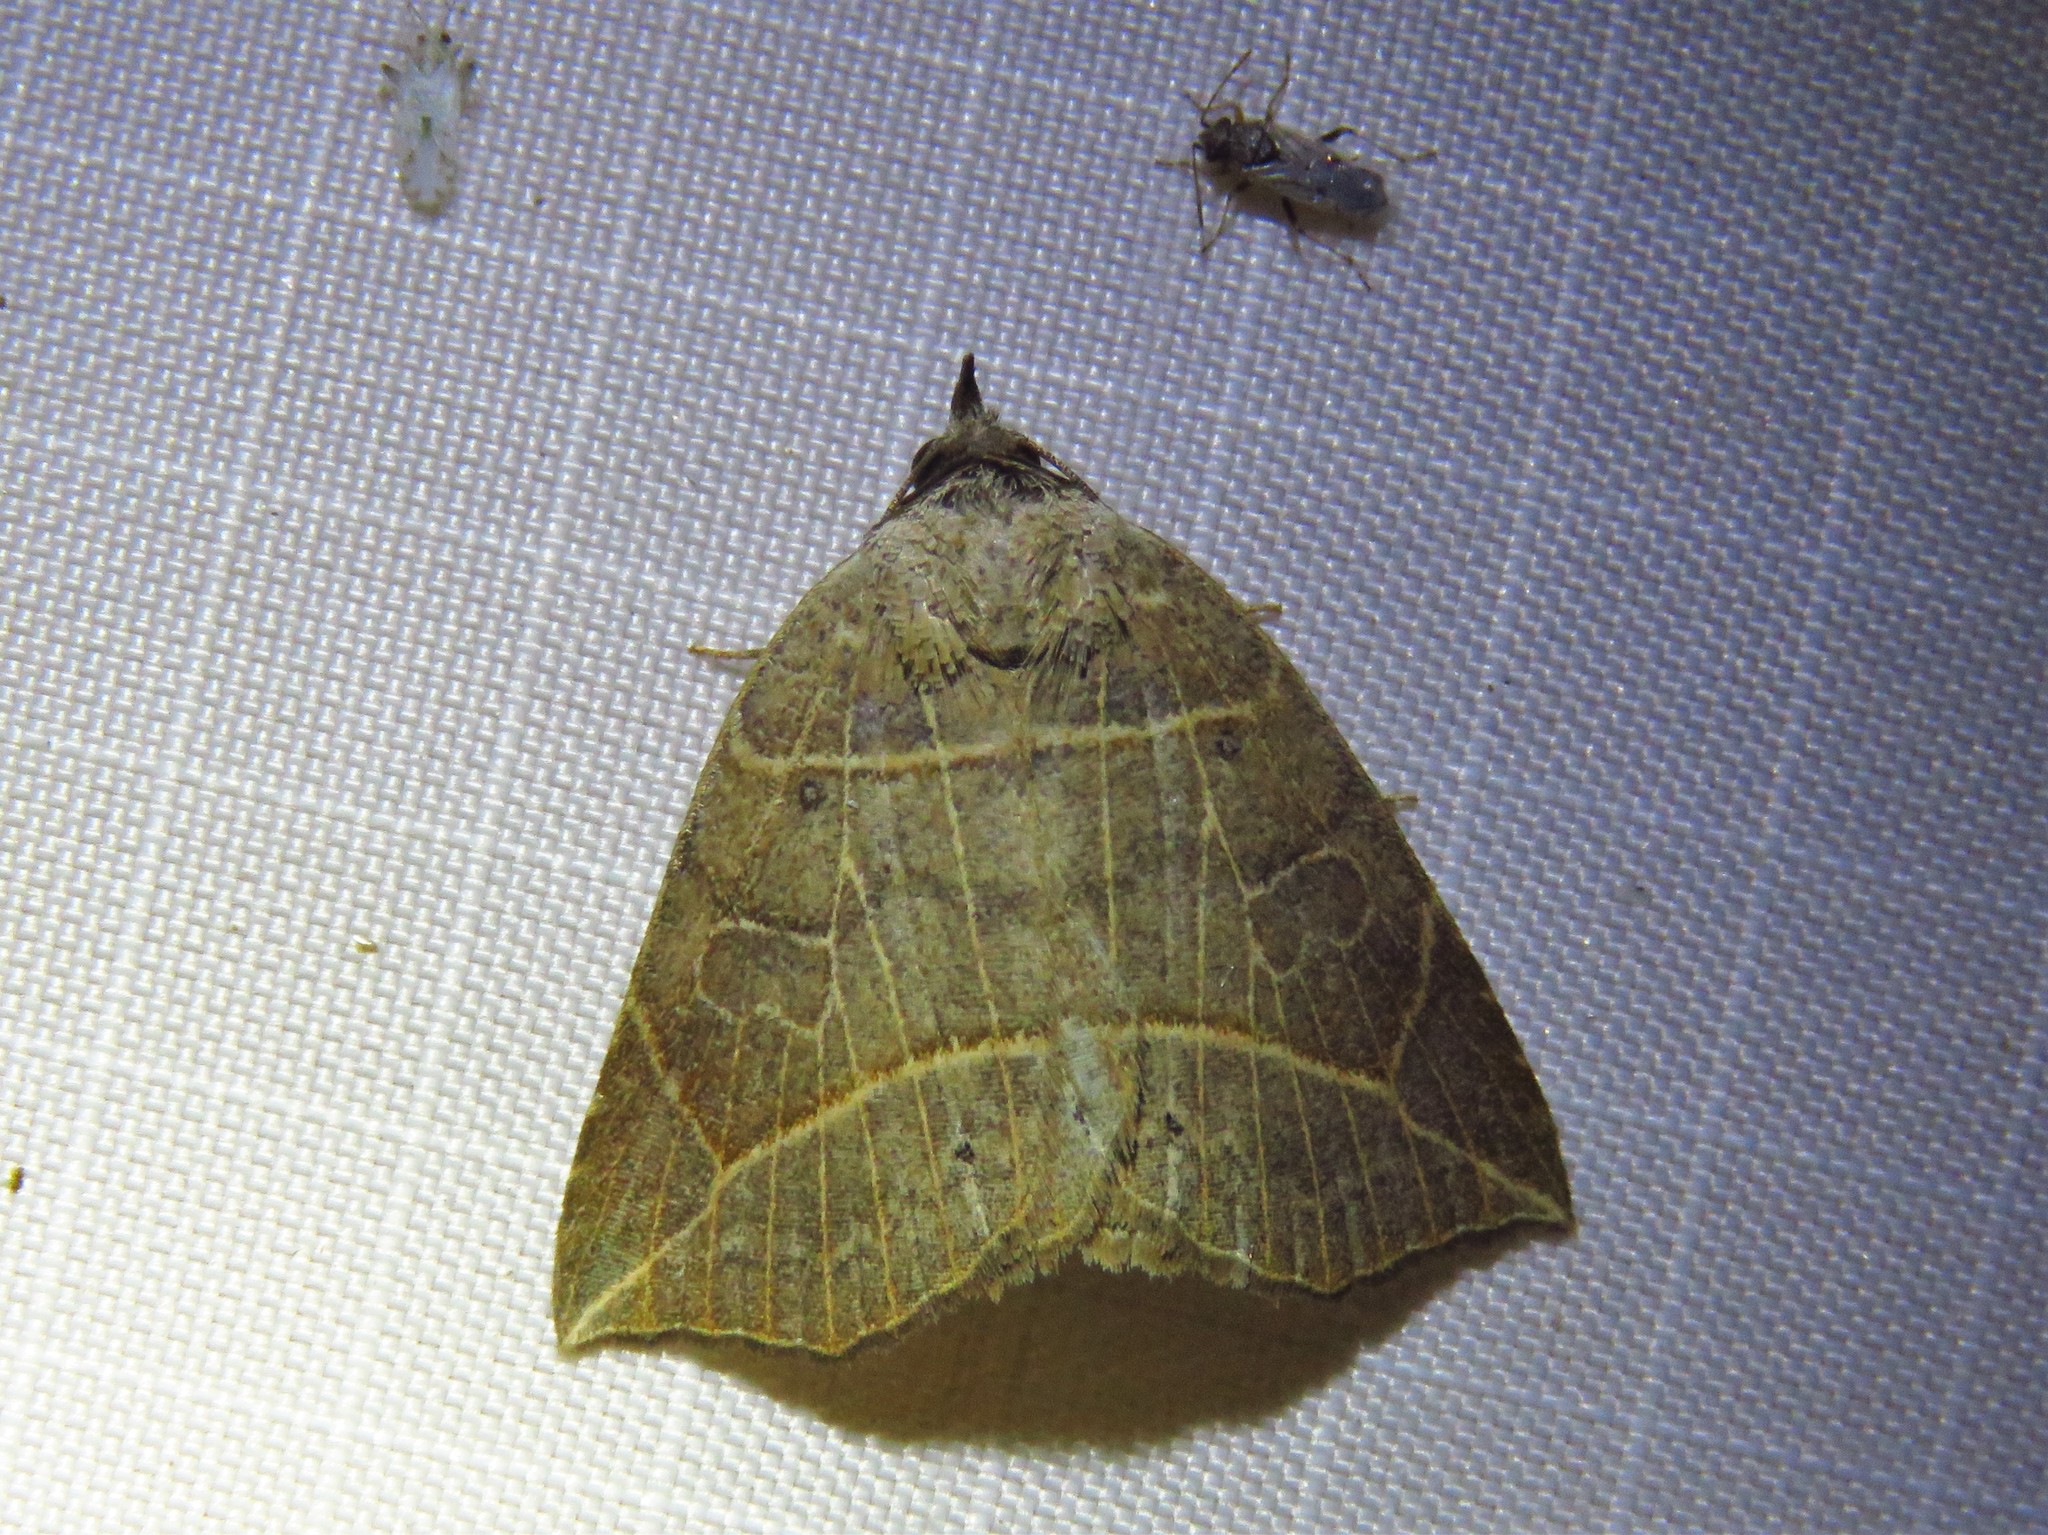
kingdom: Animalia
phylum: Arthropoda
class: Insecta
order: Lepidoptera
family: Erebidae
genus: Isogona
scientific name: Isogona tenuis
